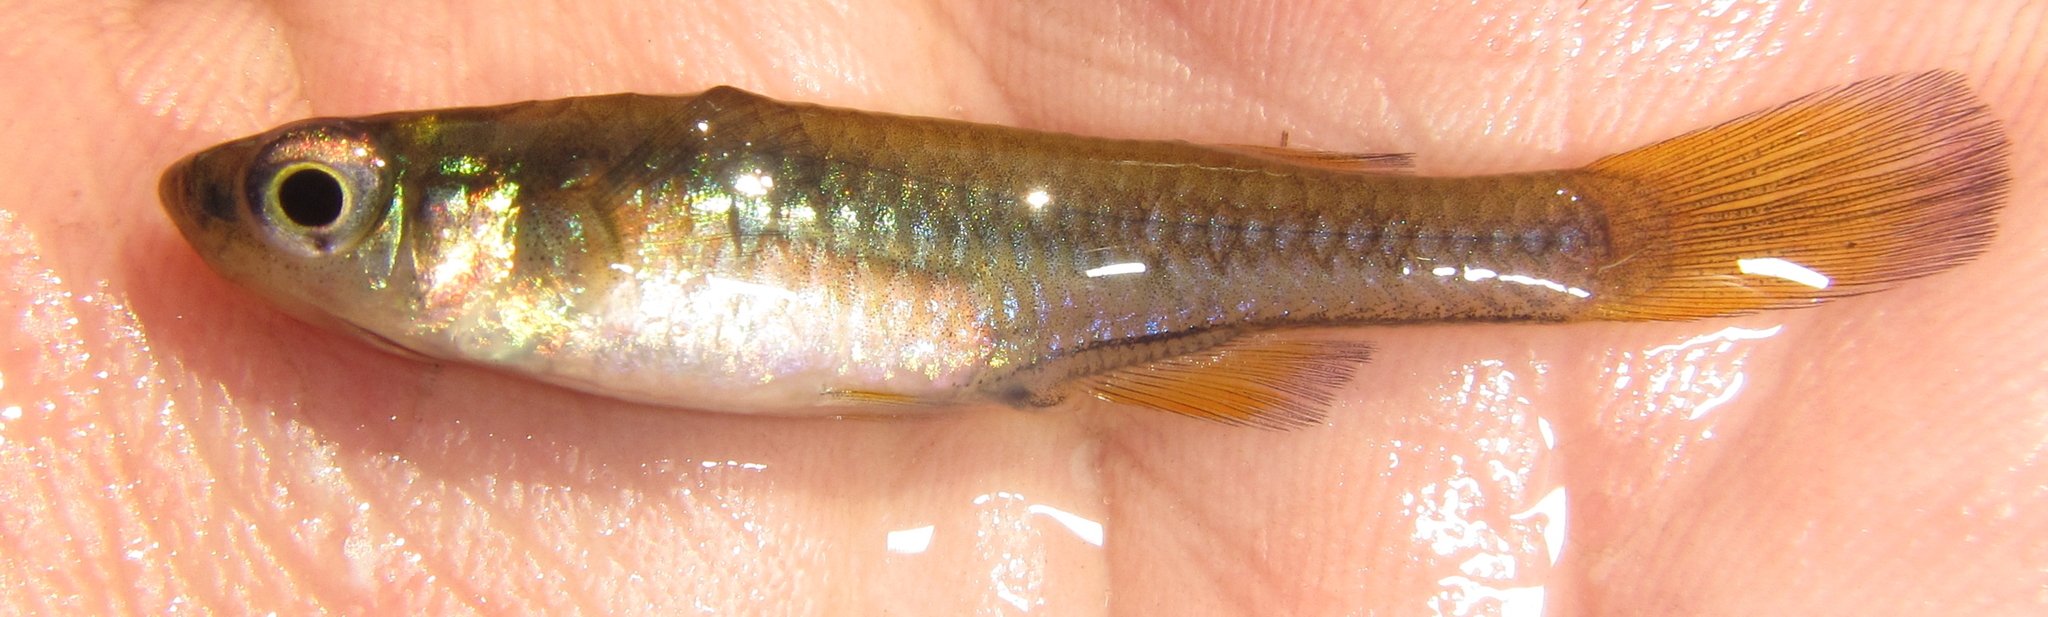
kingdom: Animalia
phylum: Chordata
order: Cyprinodontiformes
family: Poeciliidae
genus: Micropanchax
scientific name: Micropanchax johnstoni
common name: Johnston's topminnow
